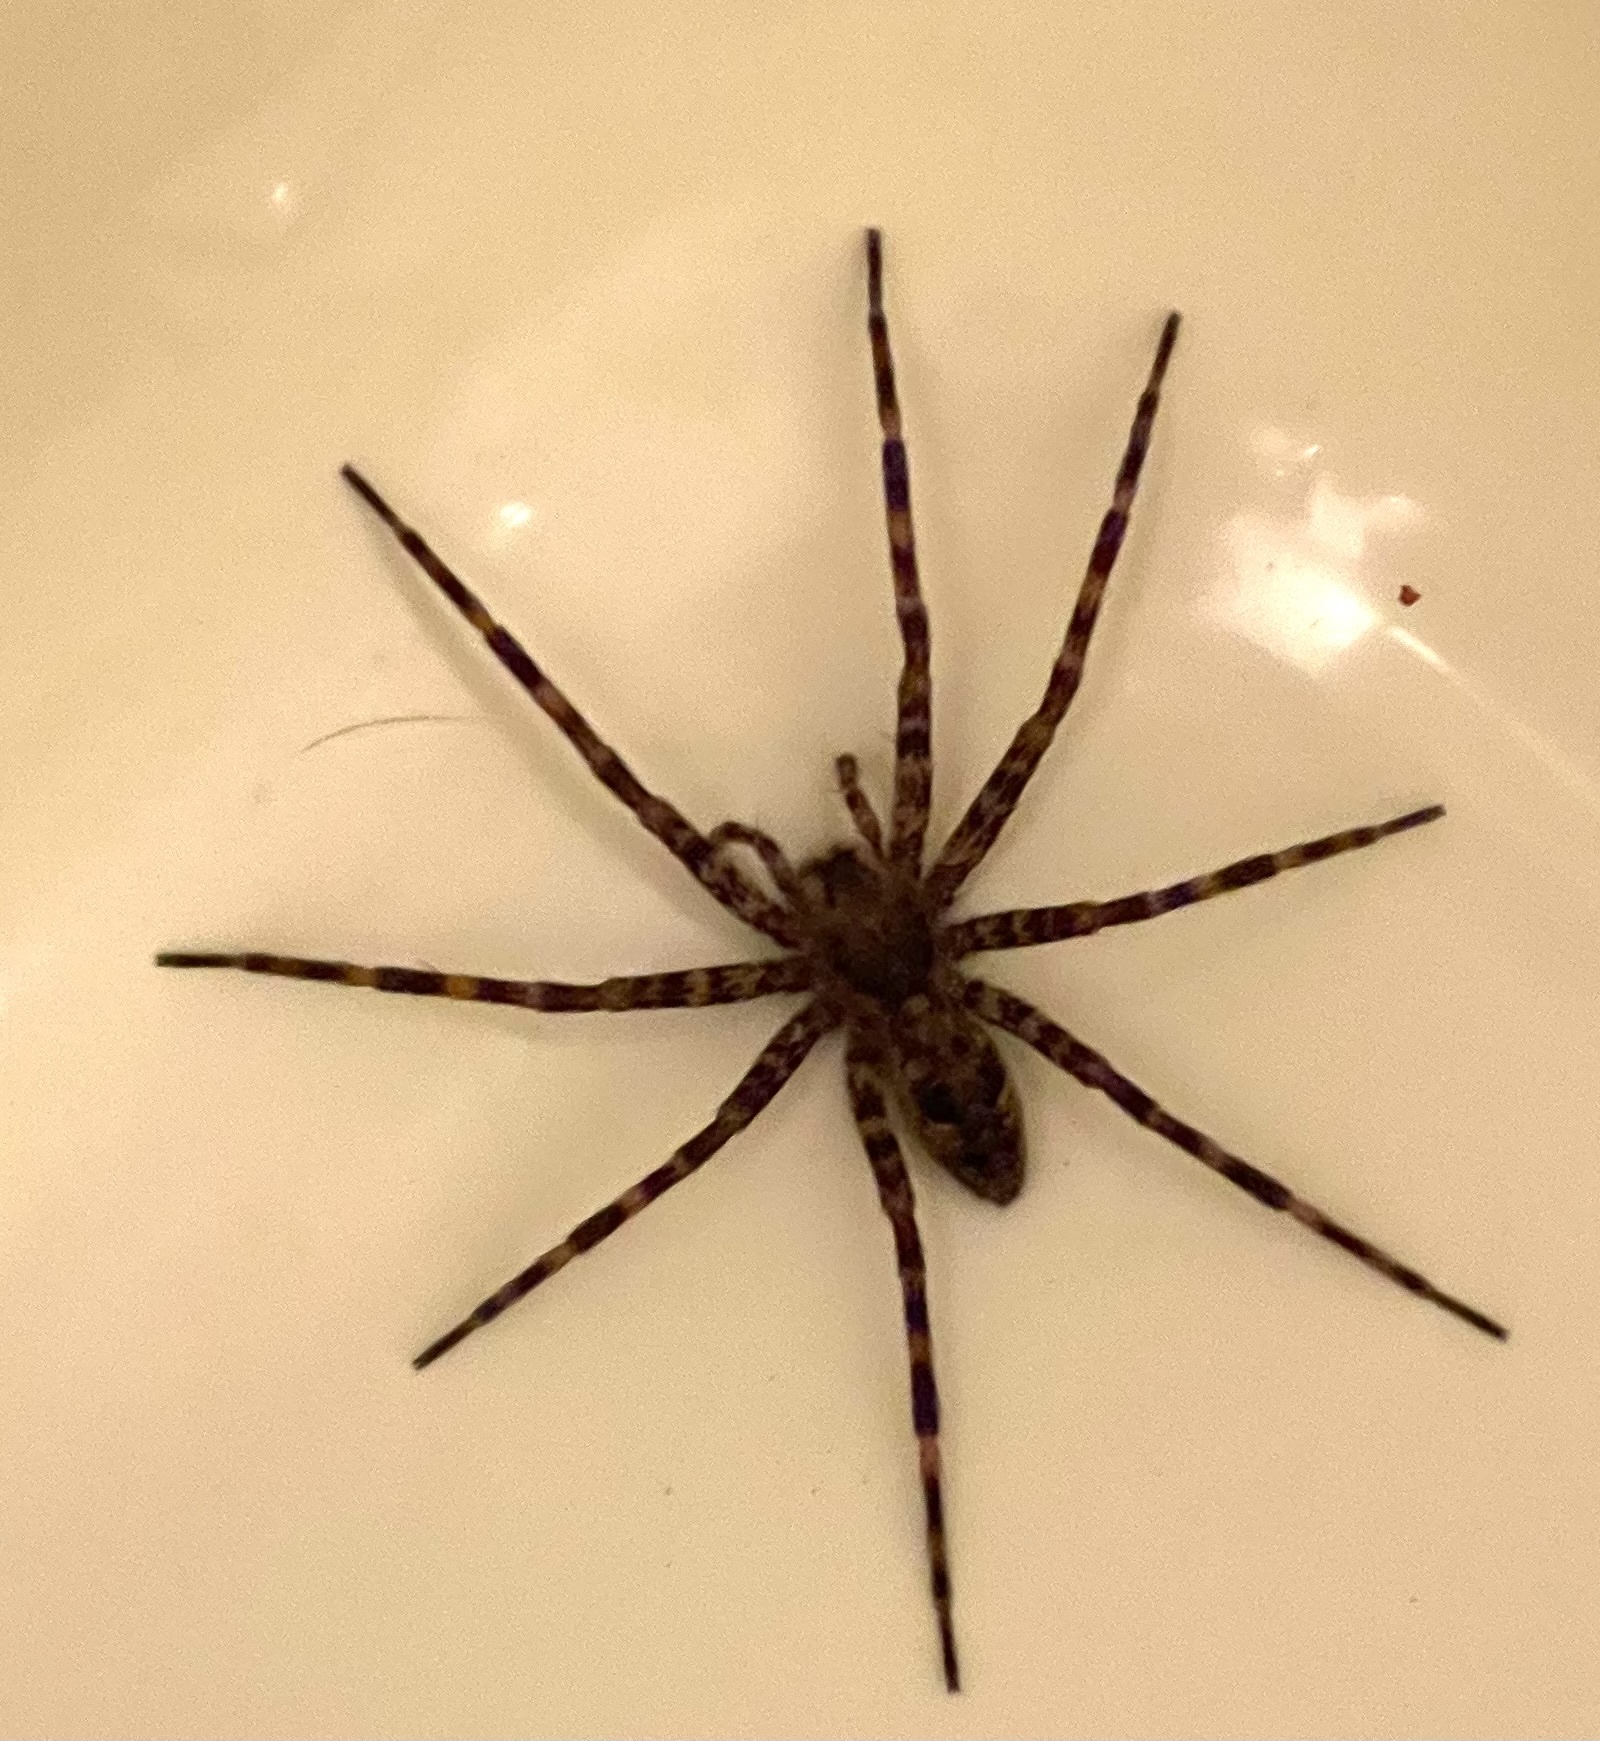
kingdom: Animalia
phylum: Arthropoda
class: Arachnida
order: Araneae
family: Pisauridae
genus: Dolomedes
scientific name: Dolomedes tenebrosus
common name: Dark fishing spider
